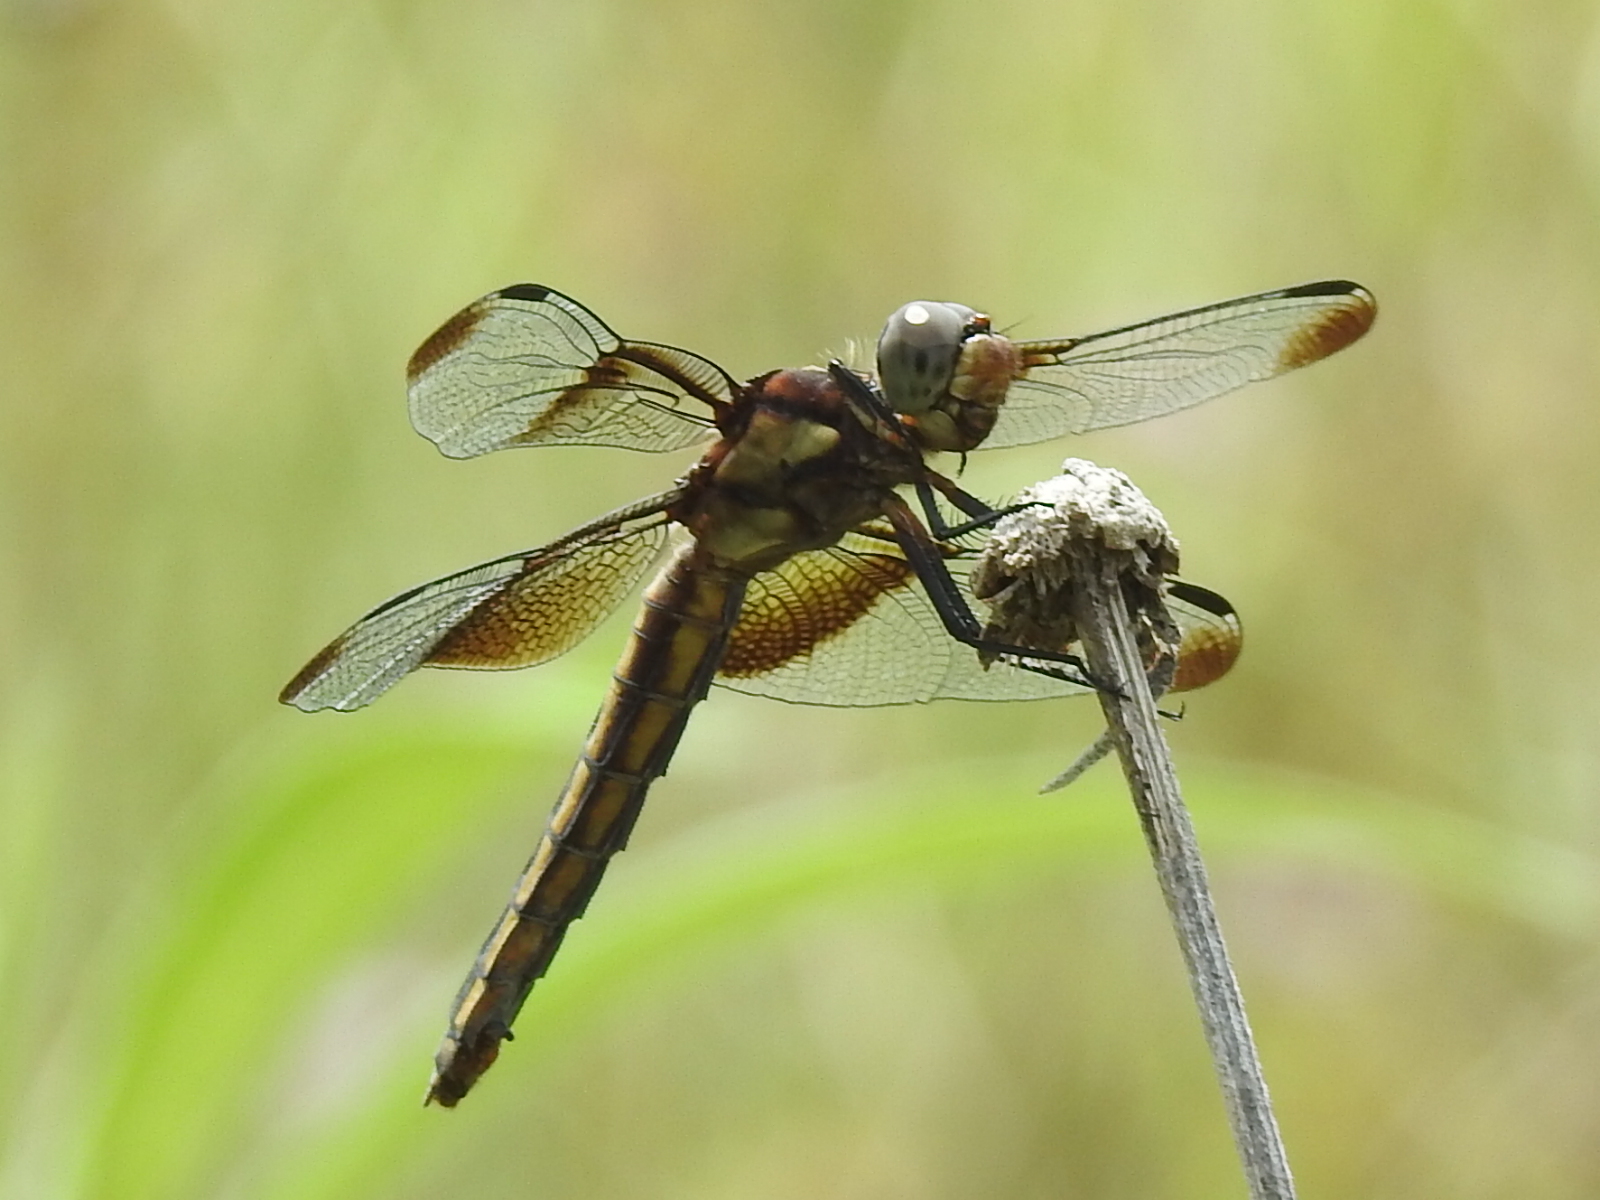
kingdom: Animalia
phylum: Arthropoda
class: Insecta
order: Odonata
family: Libellulidae
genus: Libellula
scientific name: Libellula luctuosa
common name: Widow skimmer
